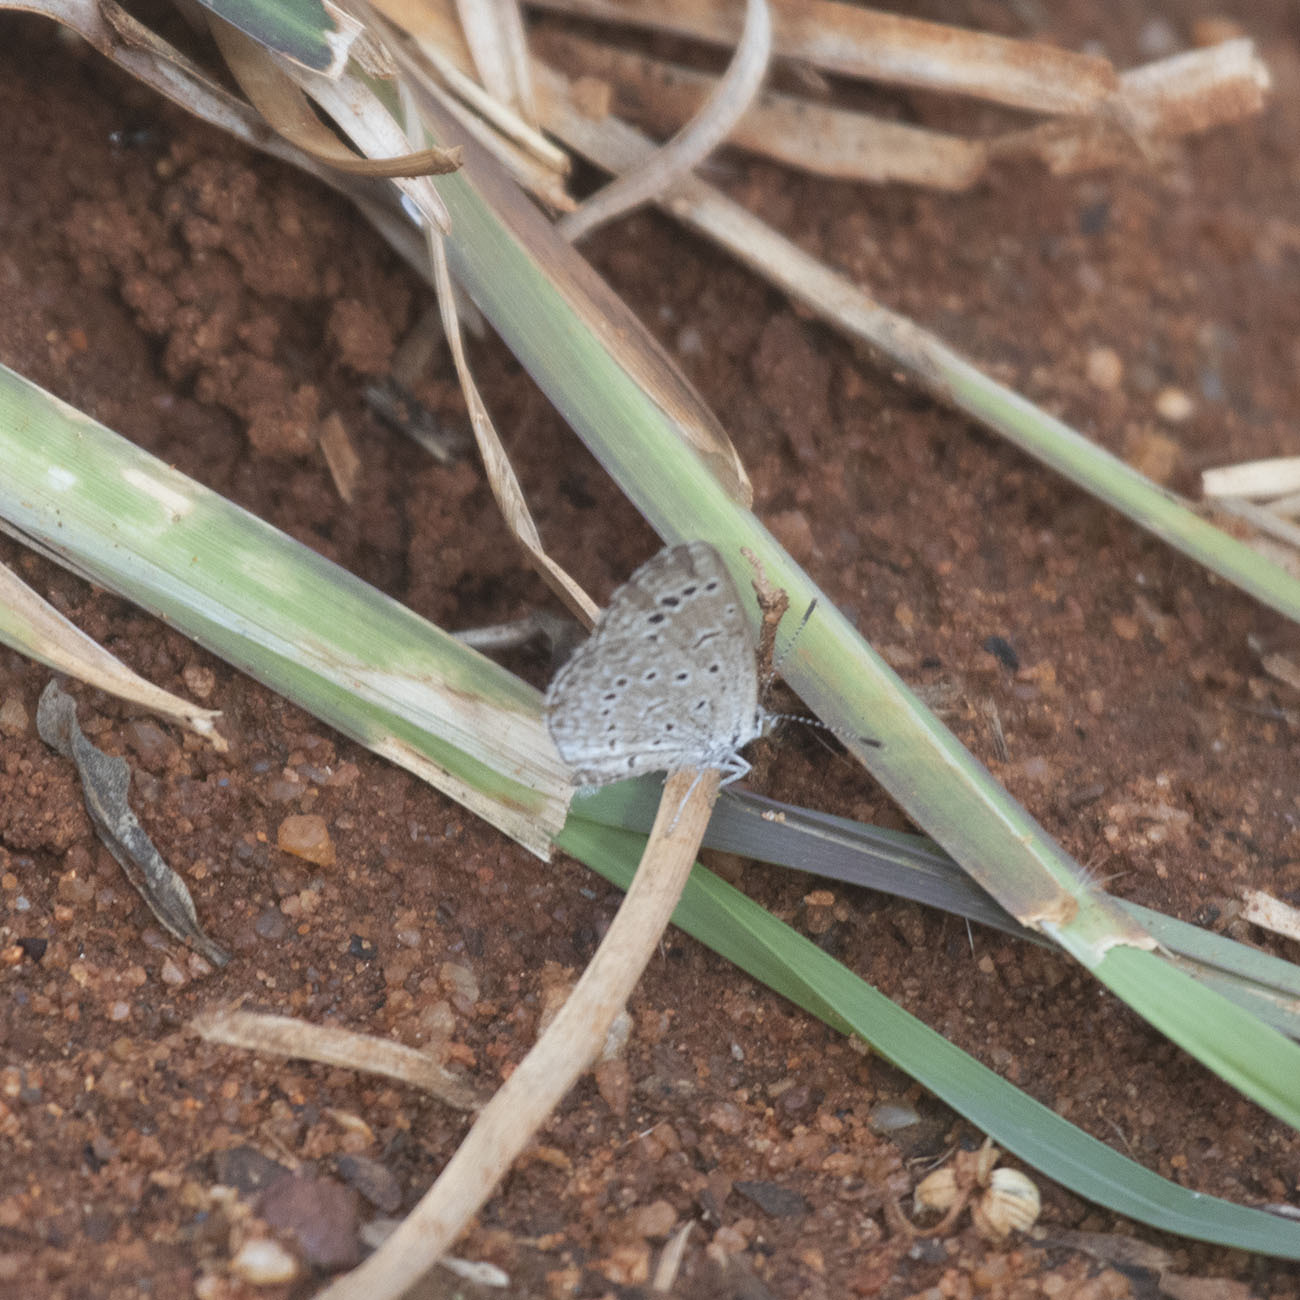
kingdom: Animalia
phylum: Arthropoda
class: Insecta
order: Lepidoptera
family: Lycaenidae
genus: Zizeeria
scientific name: Zizeeria karsandra
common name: Dark grass blue
